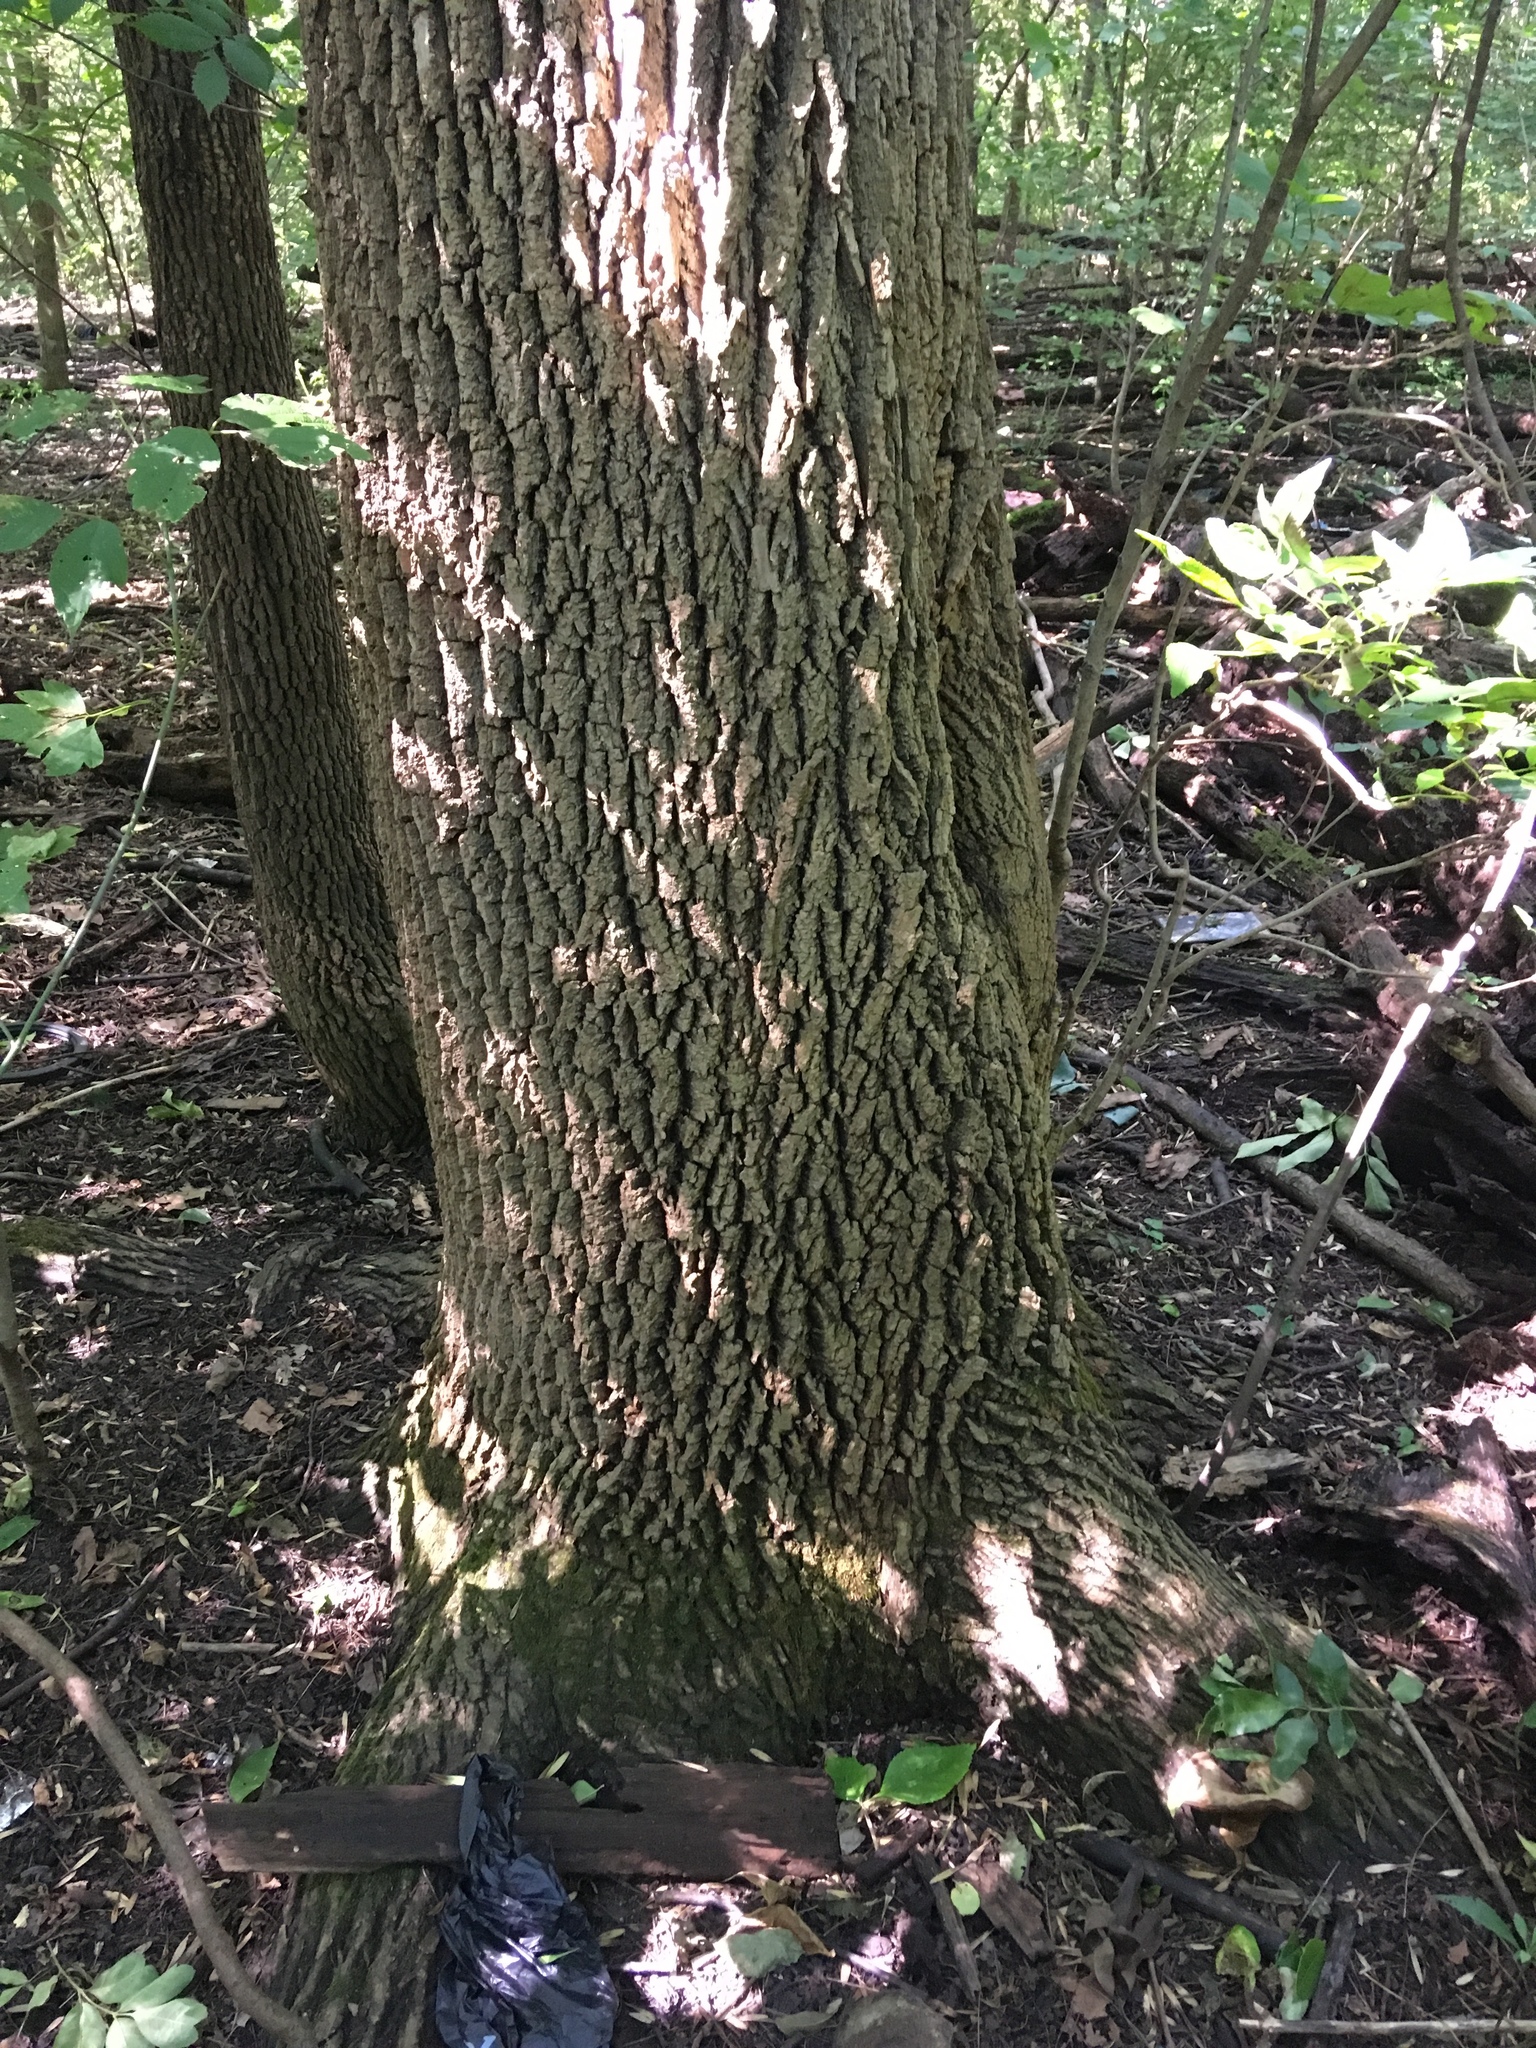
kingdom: Plantae
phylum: Tracheophyta
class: Magnoliopsida
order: Lamiales
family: Oleaceae
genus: Fraxinus
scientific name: Fraxinus pennsylvanica
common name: Green ash
